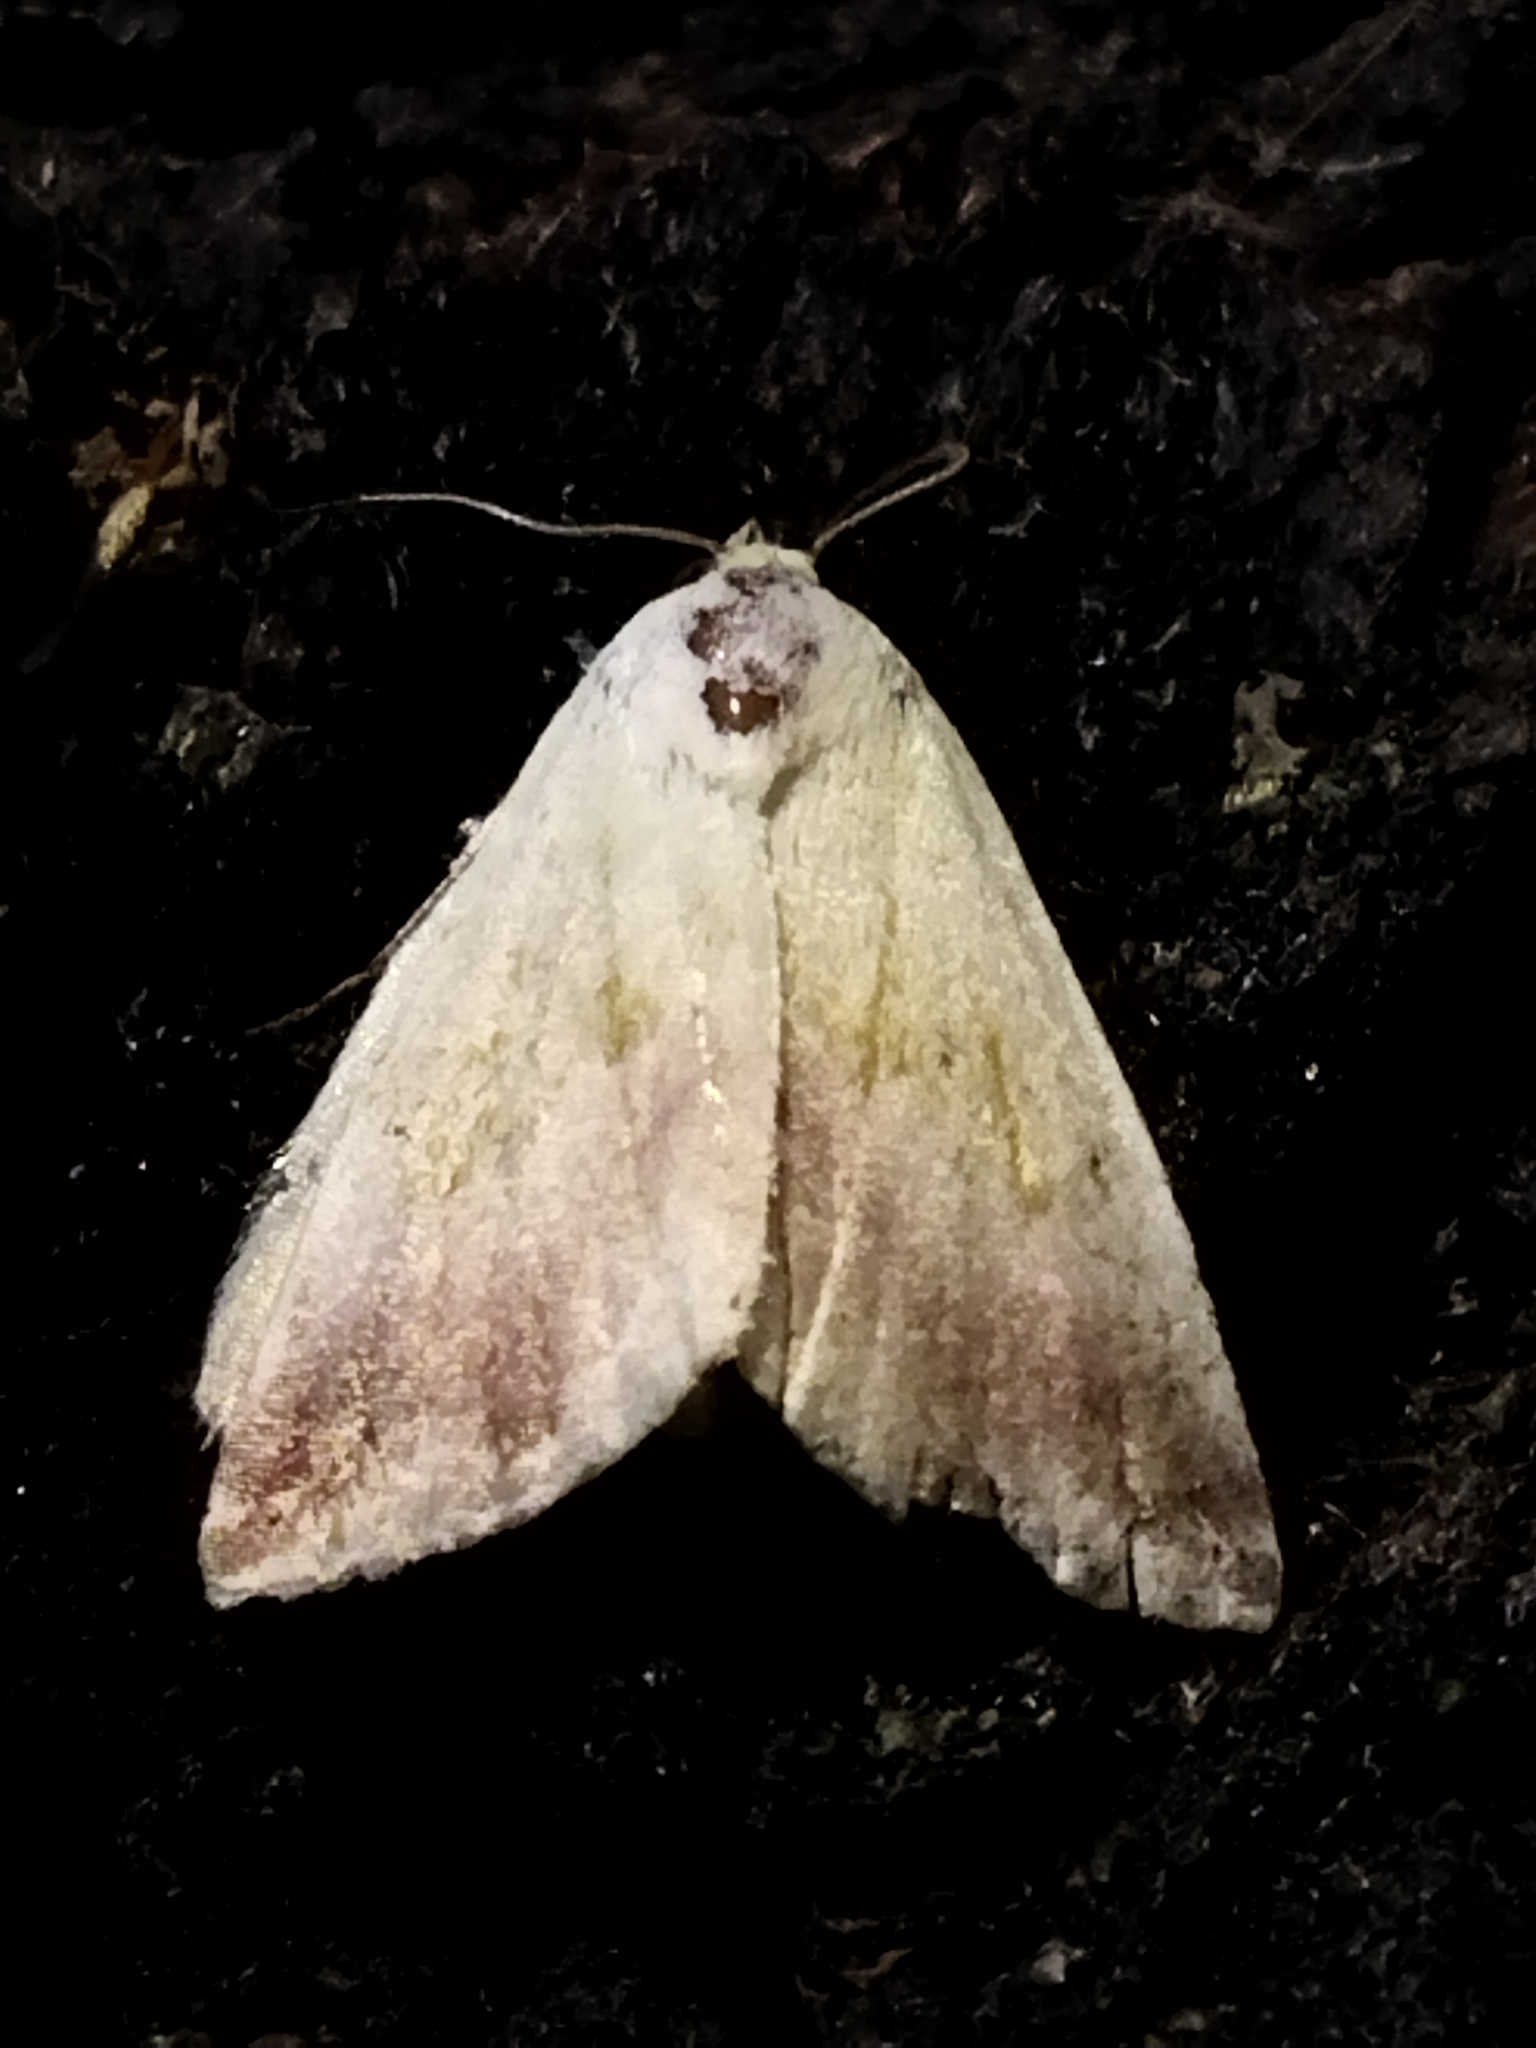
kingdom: Animalia
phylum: Arthropoda
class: Insecta
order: Lepidoptera
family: Noctuidae
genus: Eublemma
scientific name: Eublemma purpurina
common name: Beautiful marbled
